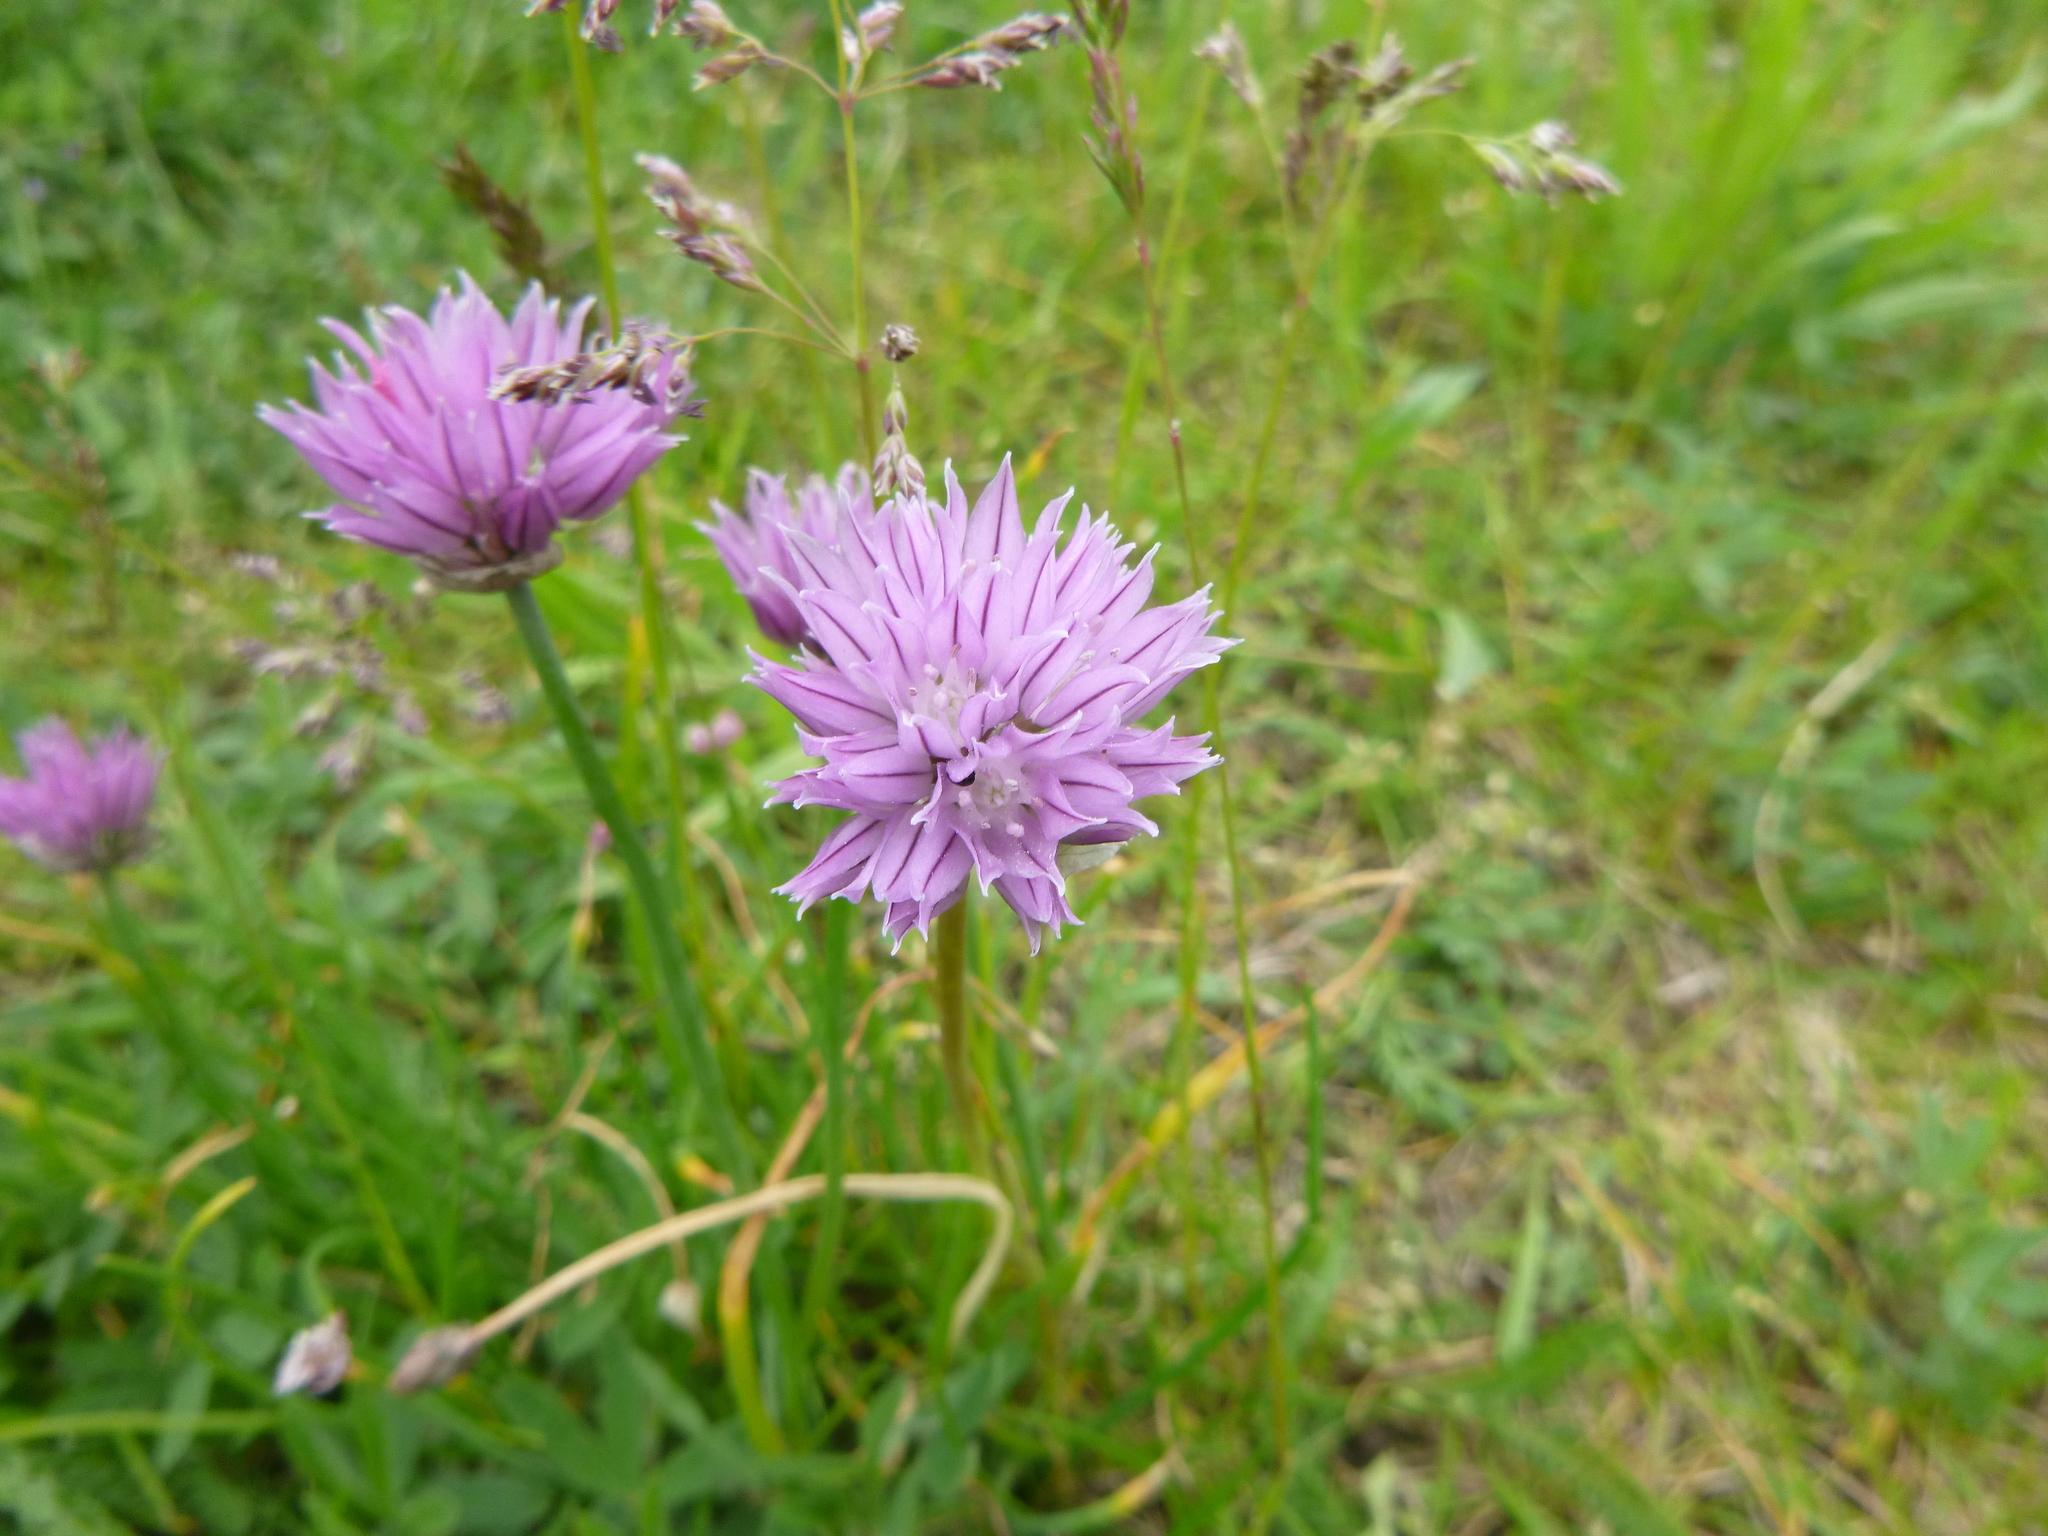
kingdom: Plantae
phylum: Tracheophyta
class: Liliopsida
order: Asparagales
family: Amaryllidaceae
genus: Allium
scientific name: Allium schoenoprasum
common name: Chives
